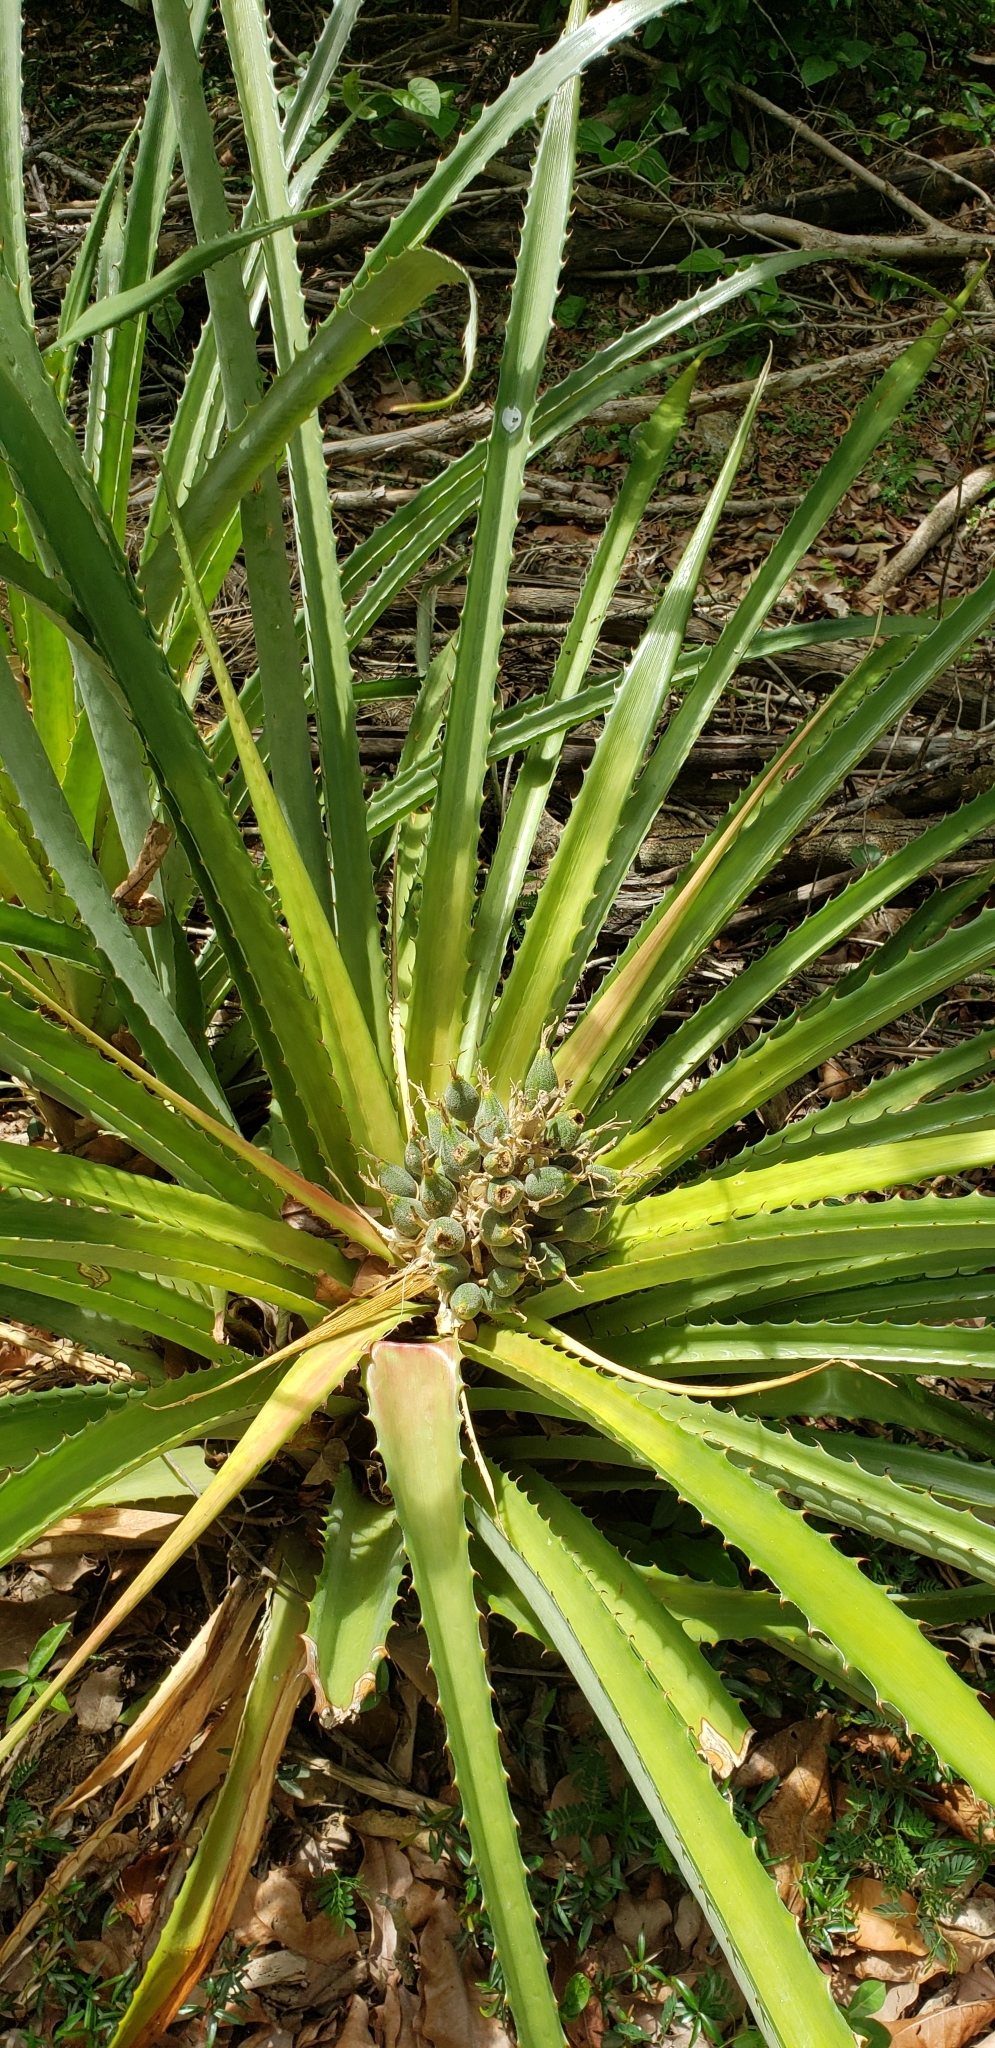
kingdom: Plantae
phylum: Tracheophyta
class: Liliopsida
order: Poales
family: Bromeliaceae
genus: Bromelia
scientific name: Bromelia pinguin
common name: Pinguin
